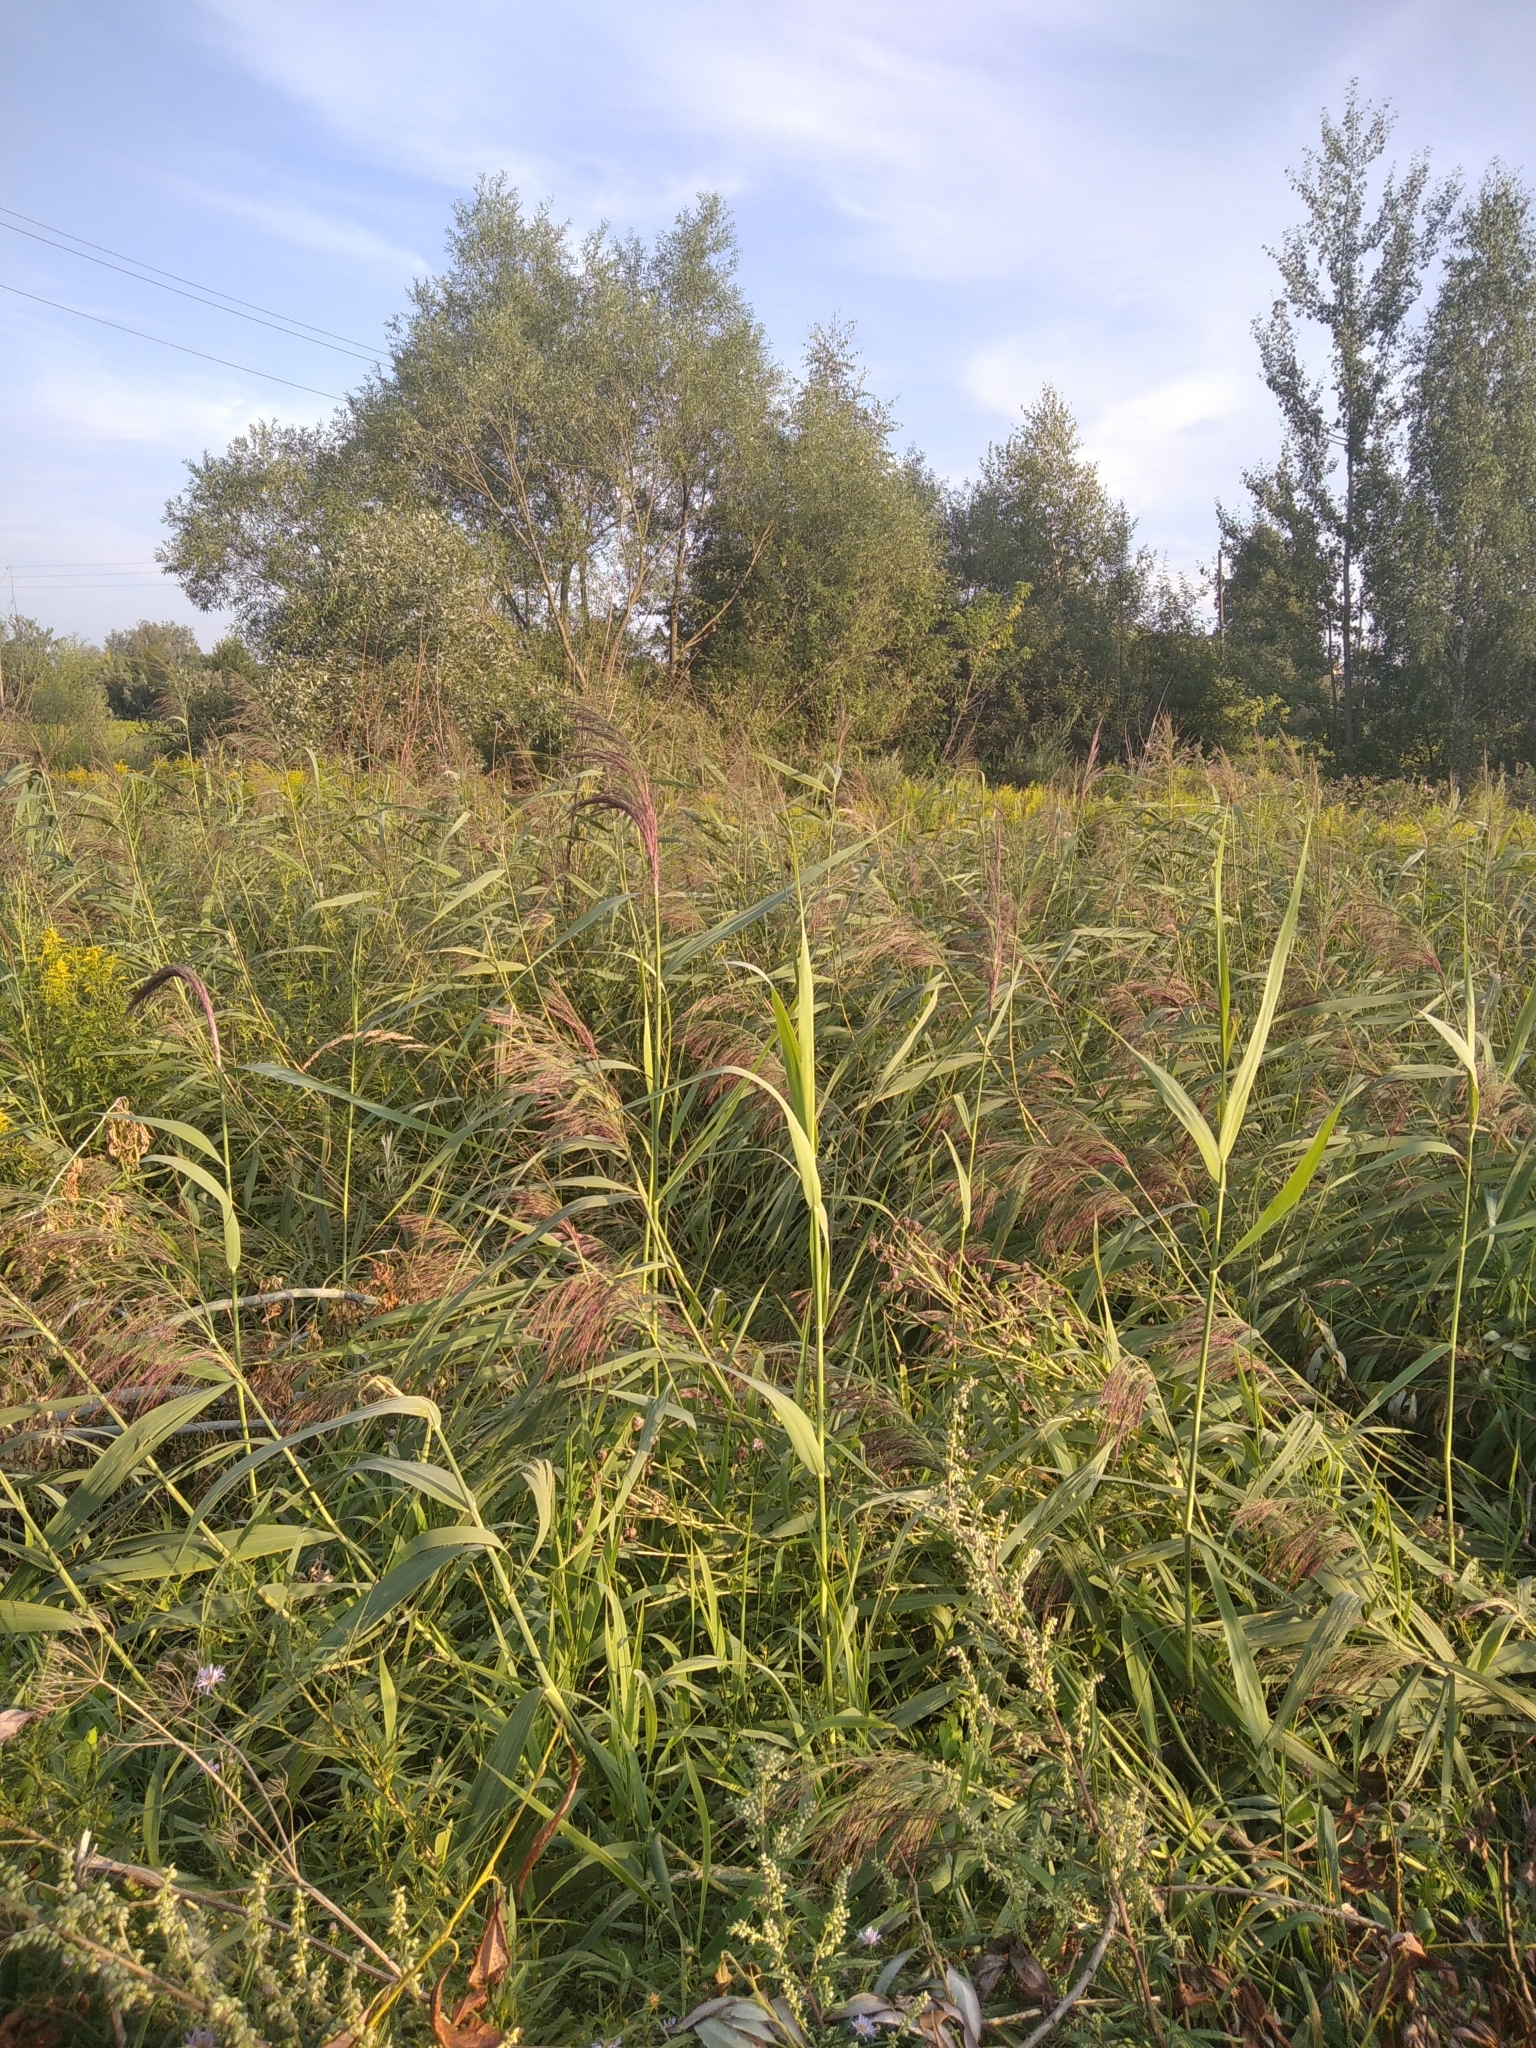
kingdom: Plantae
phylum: Tracheophyta
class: Liliopsida
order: Poales
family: Poaceae
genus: Phragmites
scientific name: Phragmites australis
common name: Common reed
